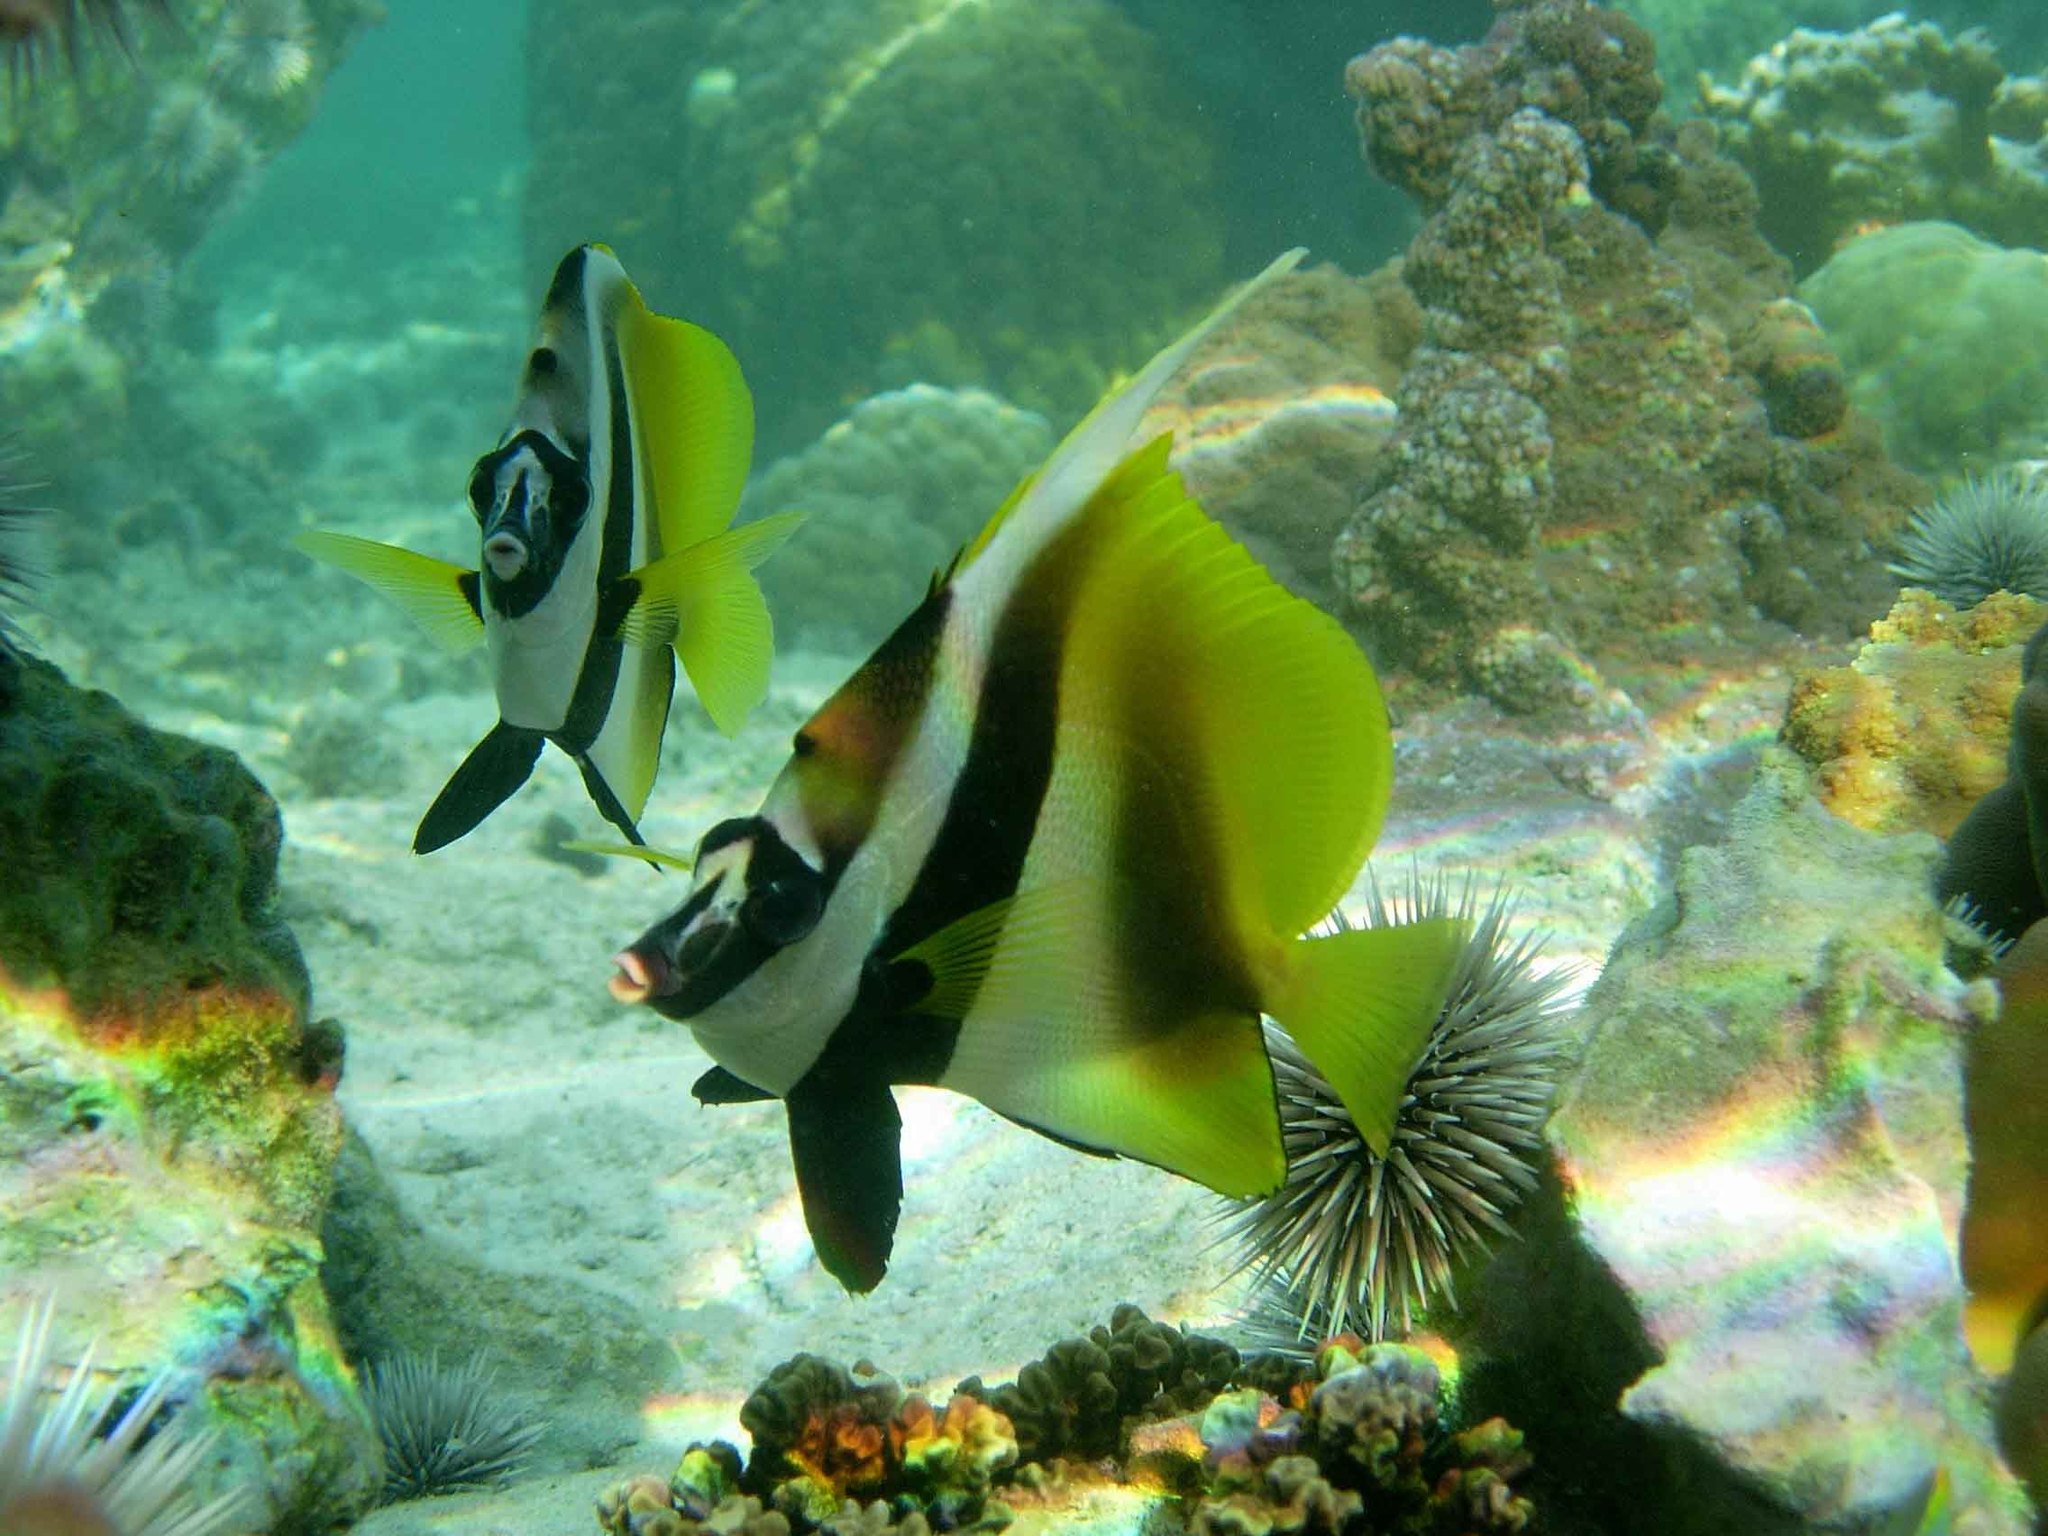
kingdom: Animalia
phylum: Chordata
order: Perciformes
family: Chaetodontidae
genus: Heniochus
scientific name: Heniochus monoceros
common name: Masked bannerfish
